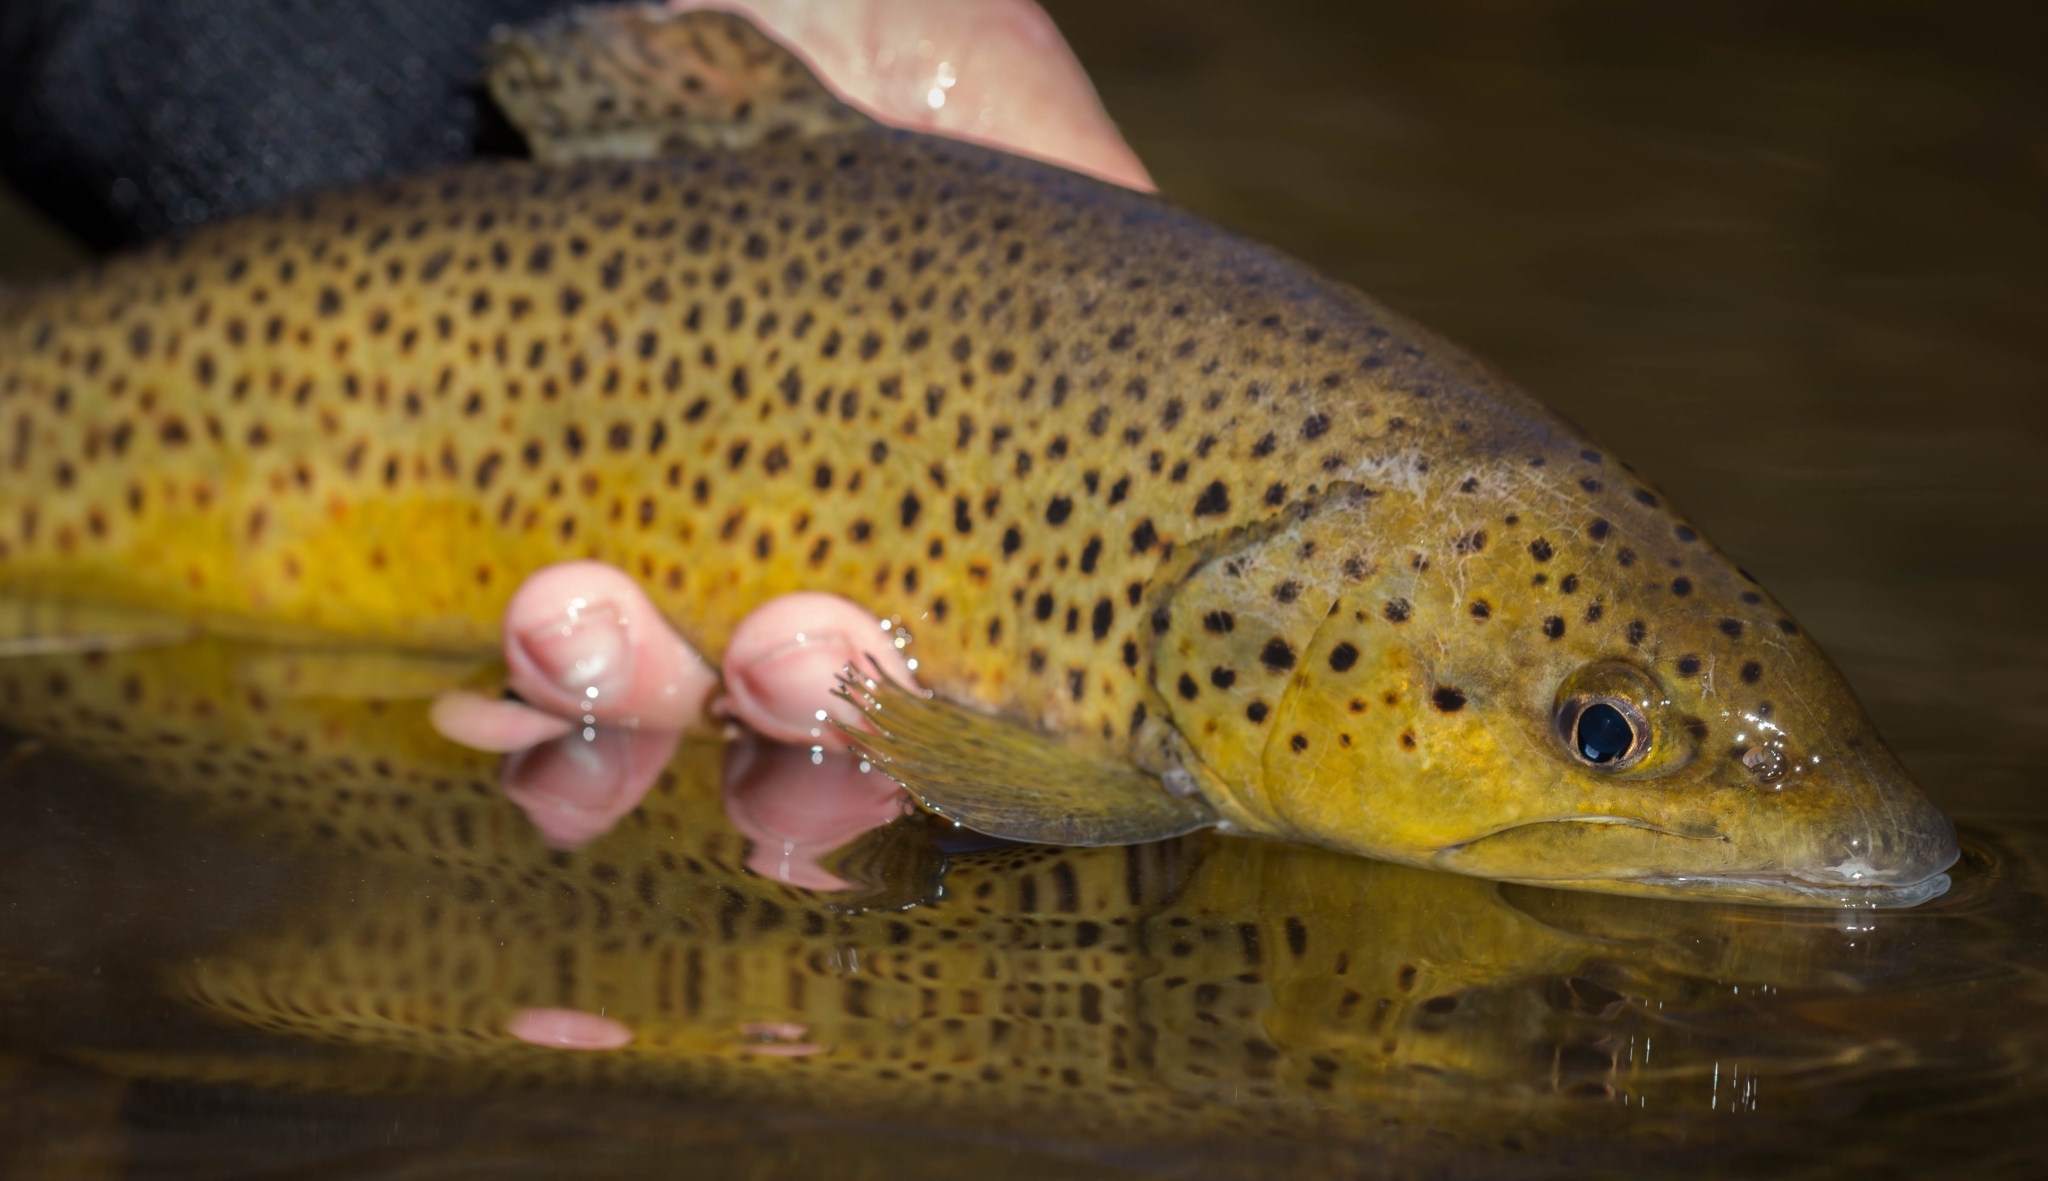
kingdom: Animalia
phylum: Chordata
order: Salmoniformes
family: Salmonidae
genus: Salmo
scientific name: Salmo trutta
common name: Brown trout
